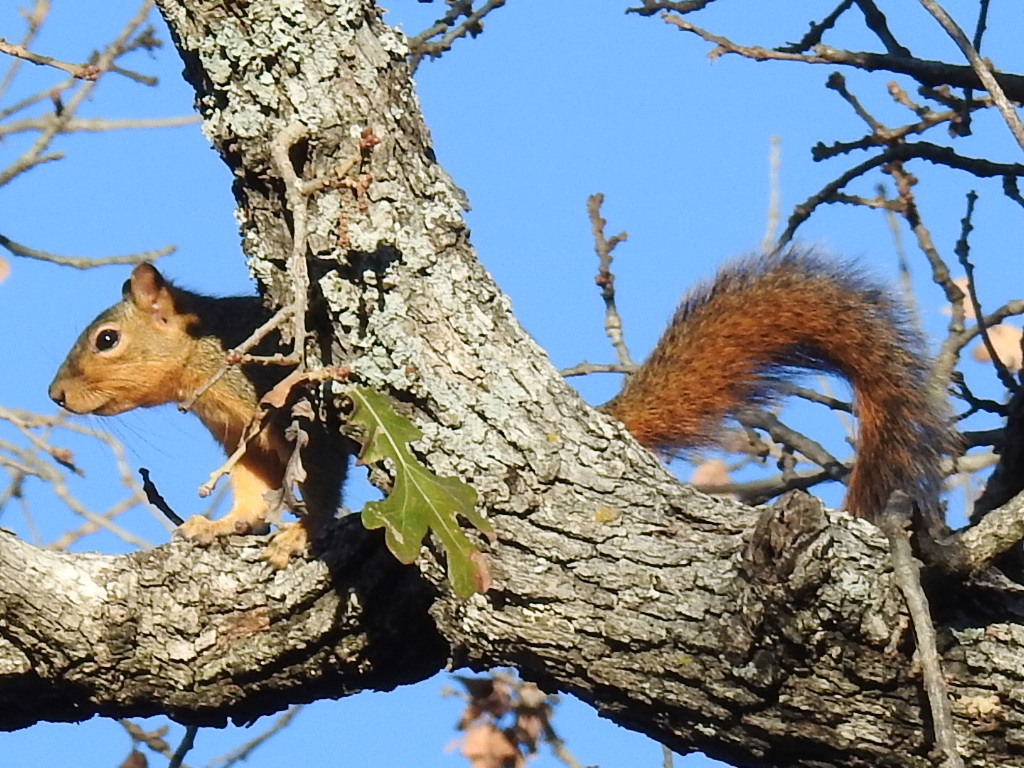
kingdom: Animalia
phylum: Chordata
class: Mammalia
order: Rodentia
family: Sciuridae
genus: Sciurus
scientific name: Sciurus niger
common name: Fox squirrel
